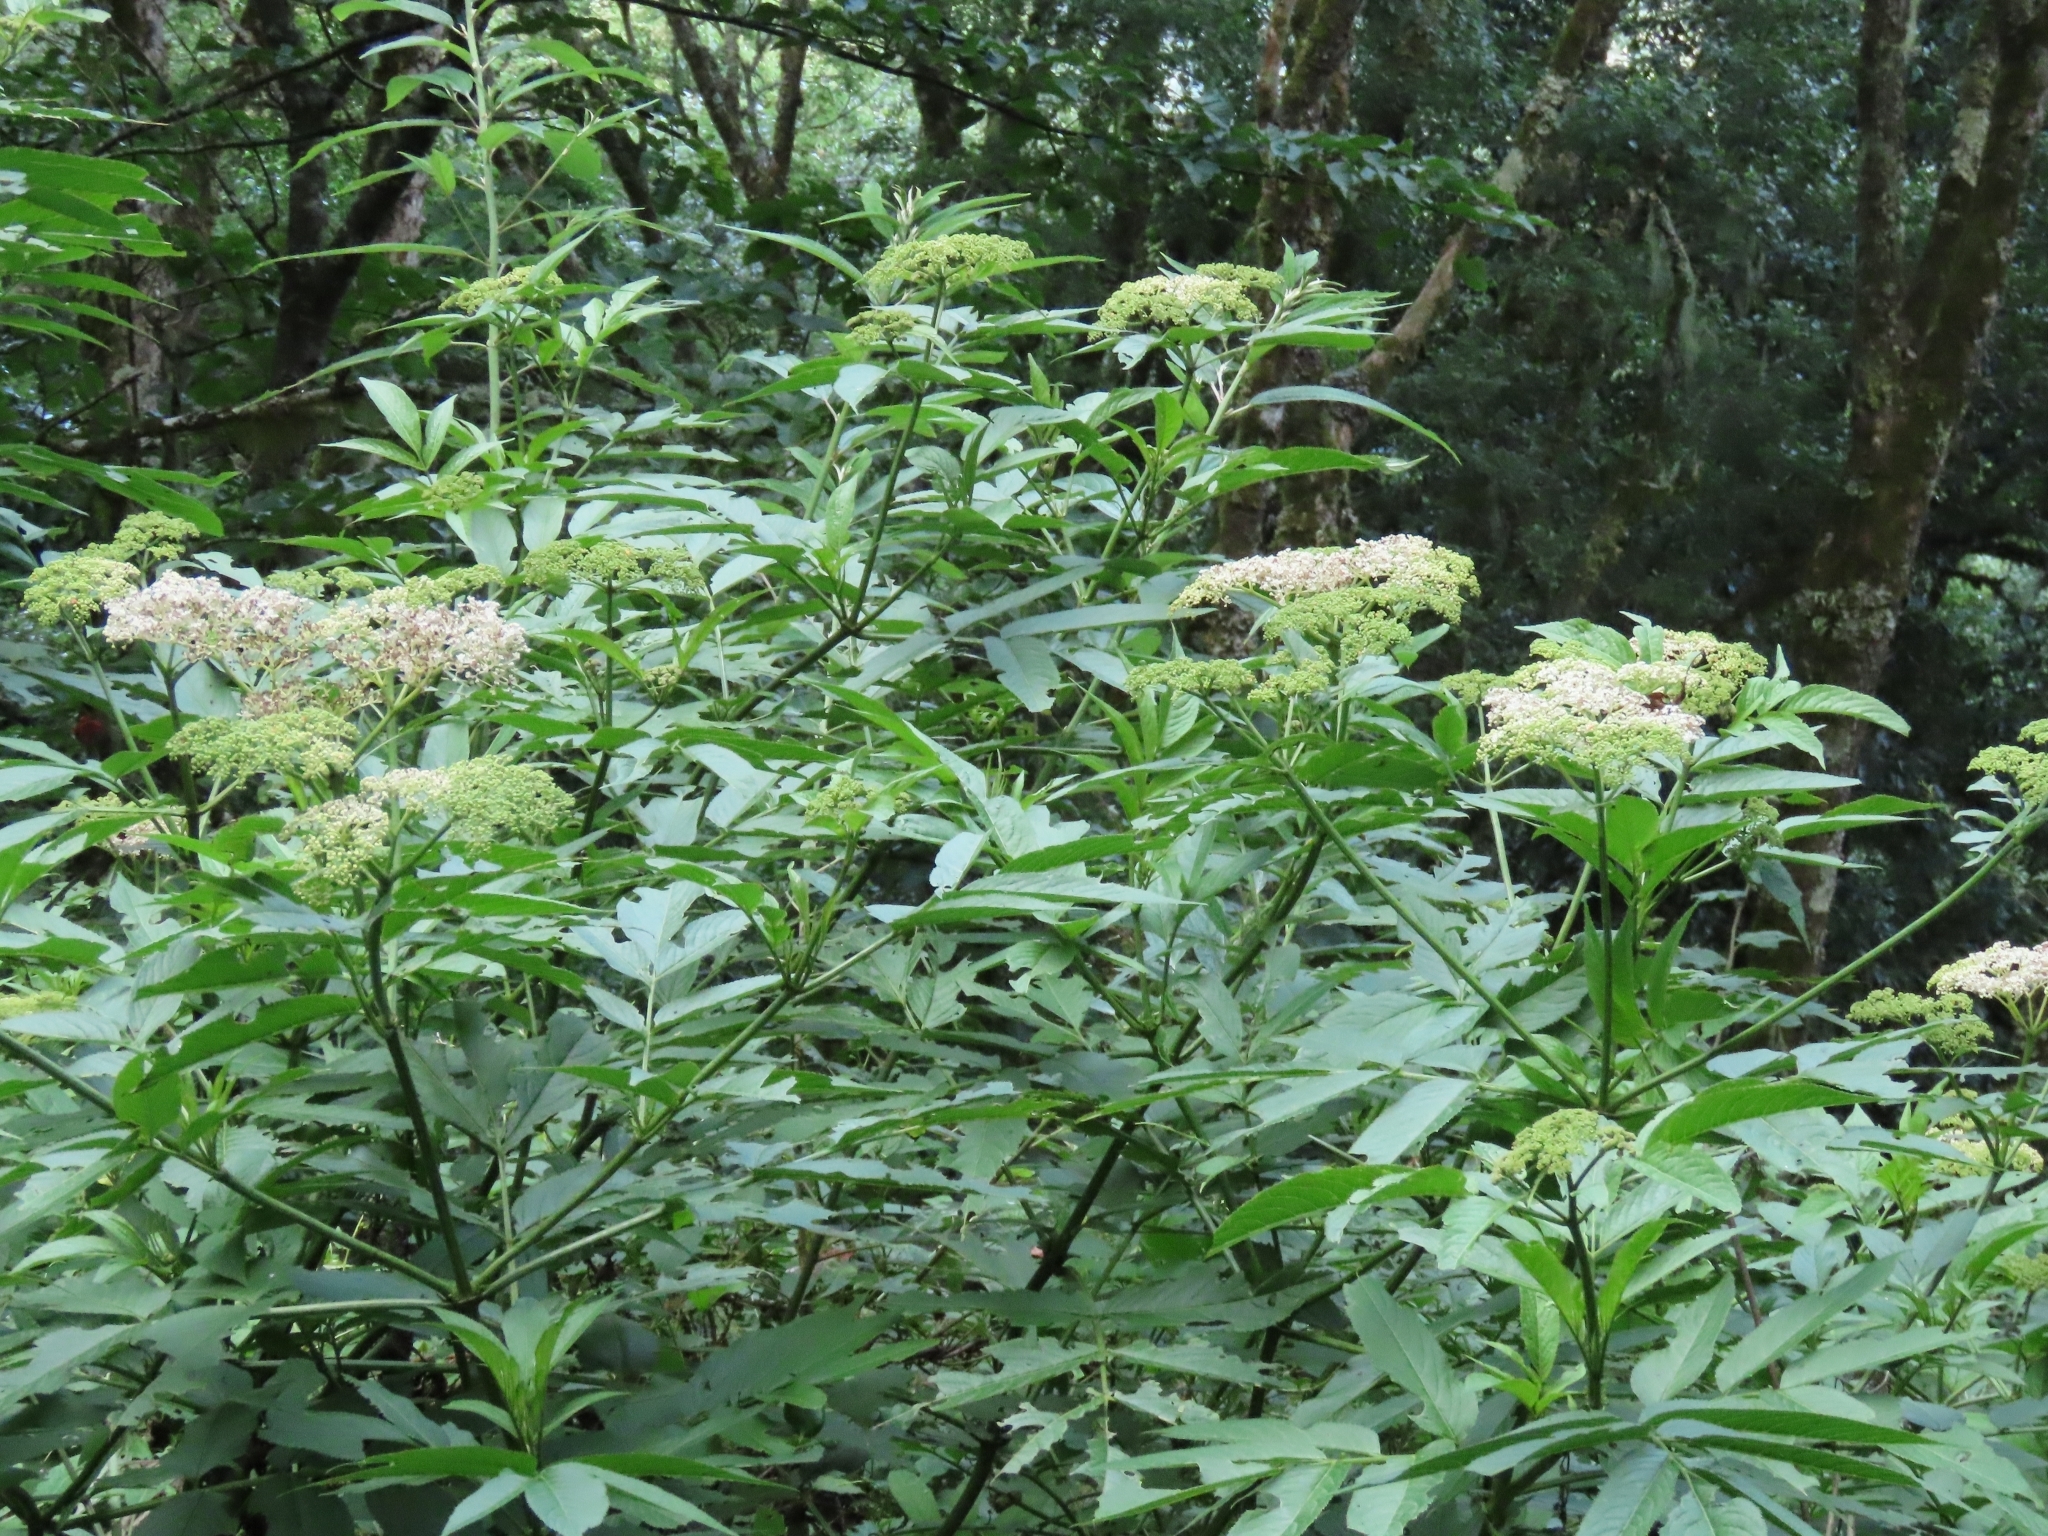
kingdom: Plantae
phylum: Tracheophyta
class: Magnoliopsida
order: Dipsacales
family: Viburnaceae
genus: Sambucus
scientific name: Sambucus javanica
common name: Chinese elder
